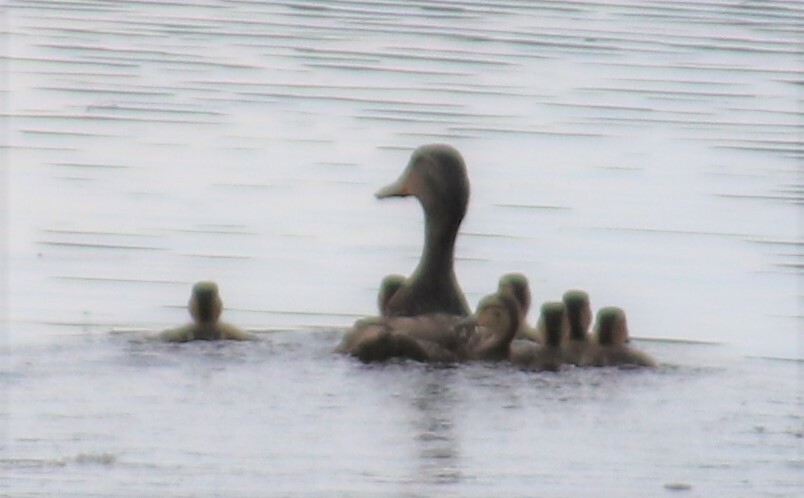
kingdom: Animalia
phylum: Chordata
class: Aves
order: Anseriformes
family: Anatidae
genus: Anas
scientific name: Anas platyrhynchos
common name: Mallard
